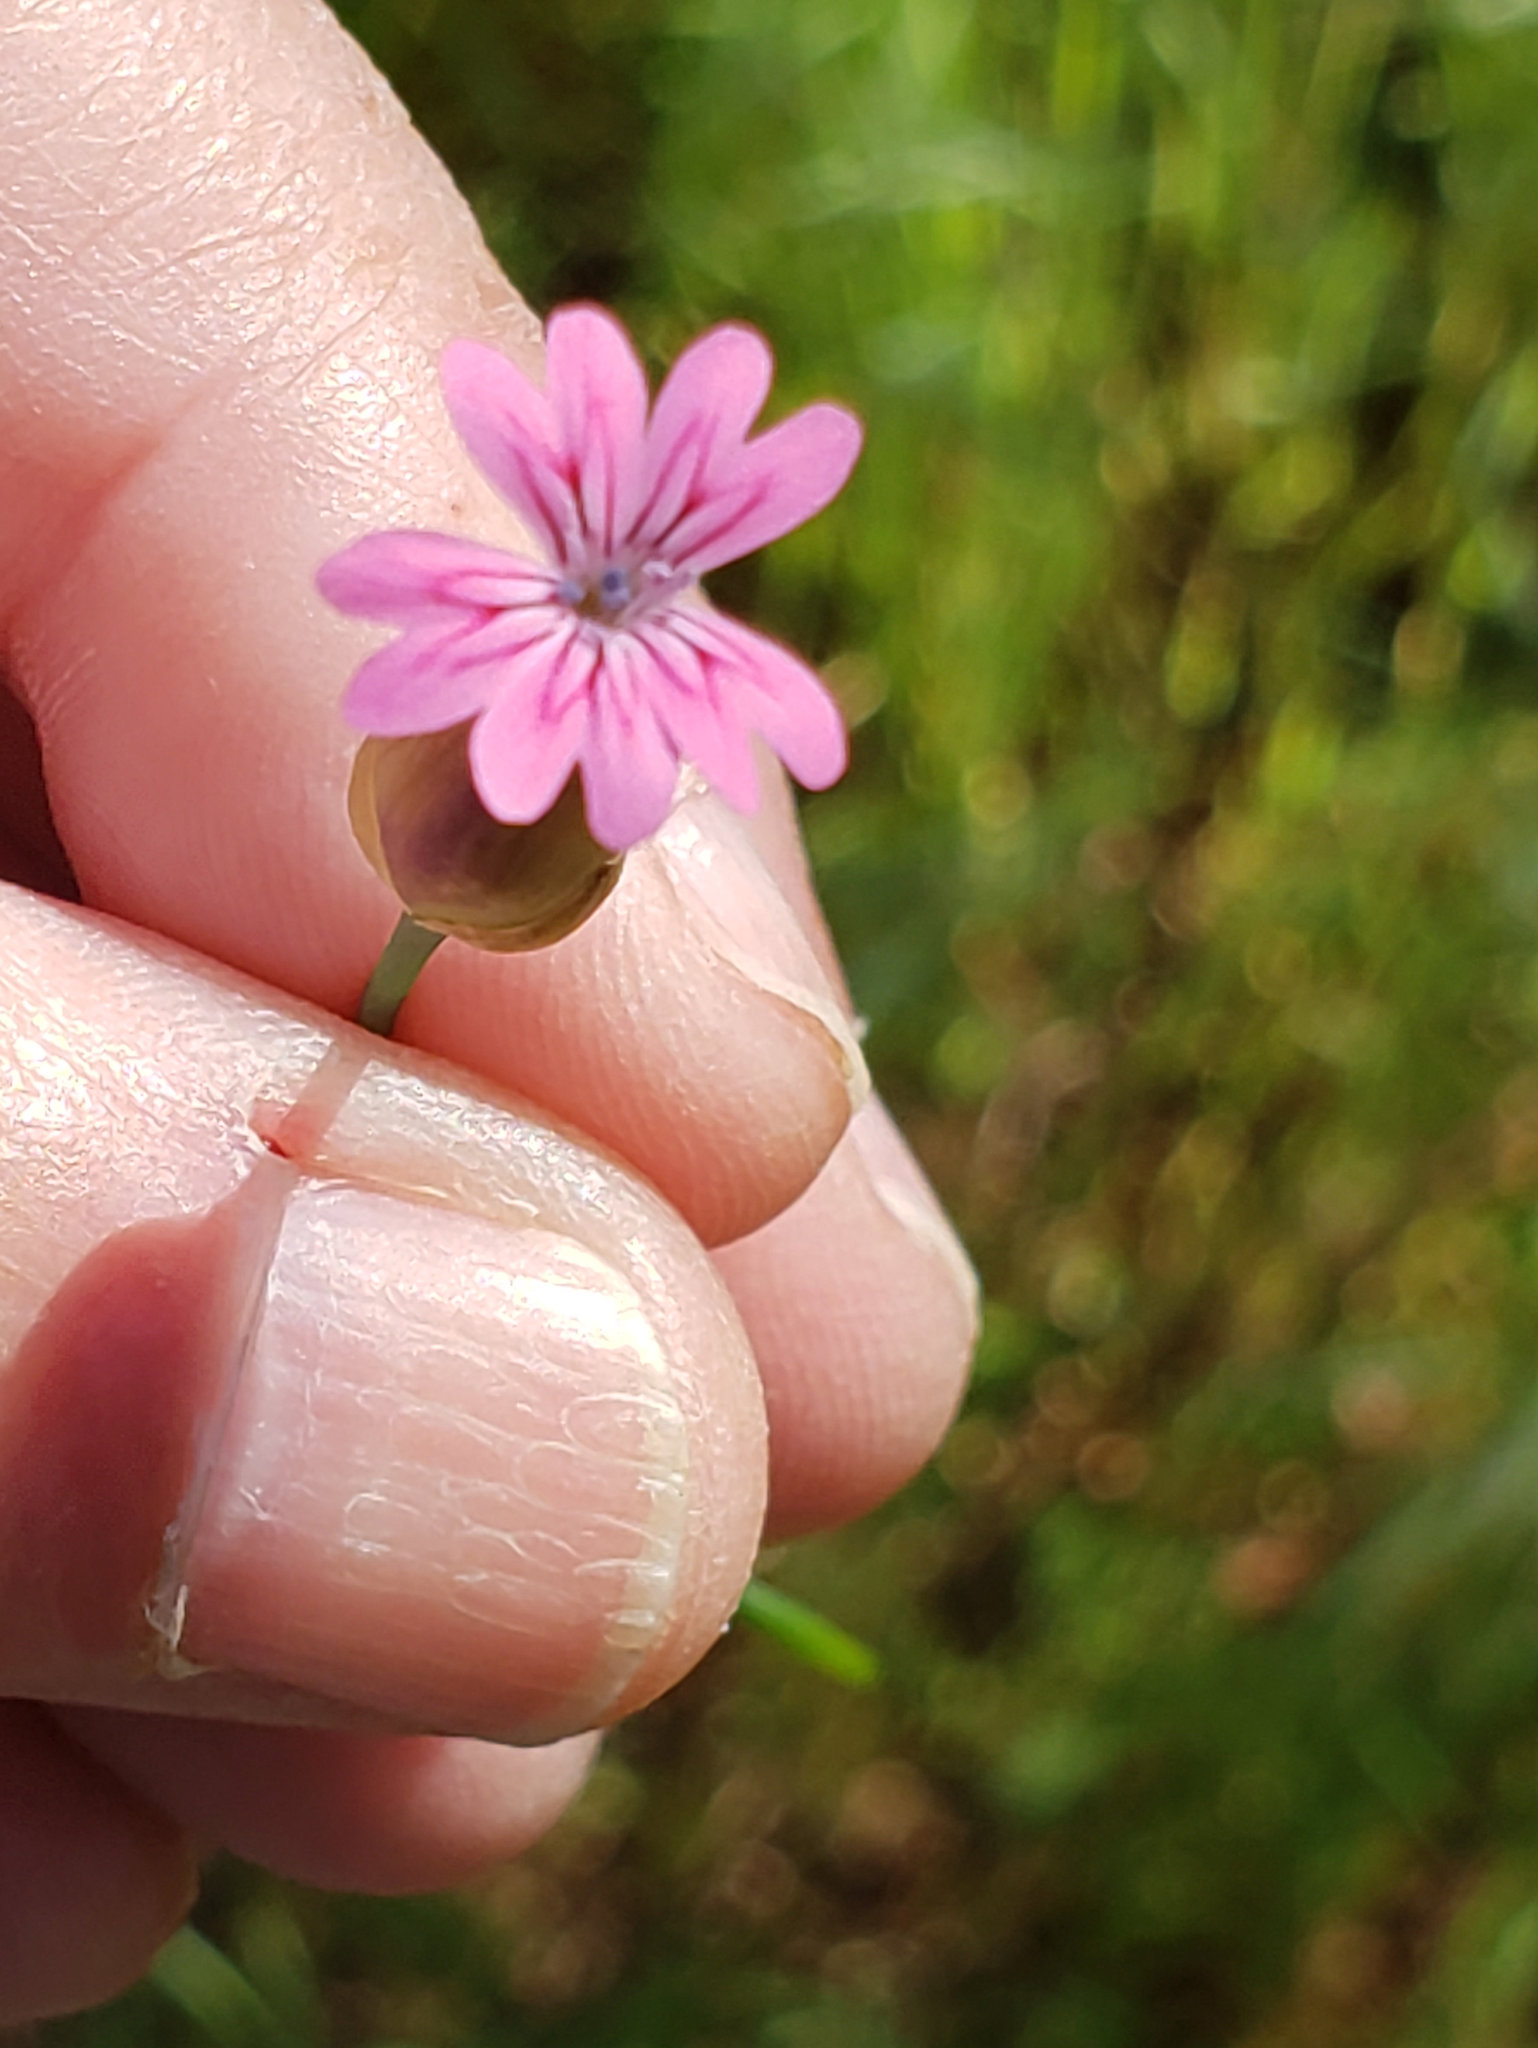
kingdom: Plantae
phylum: Tracheophyta
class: Magnoliopsida
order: Caryophyllales
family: Caryophyllaceae
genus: Petrorhagia
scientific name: Petrorhagia dubia
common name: Hairypink
